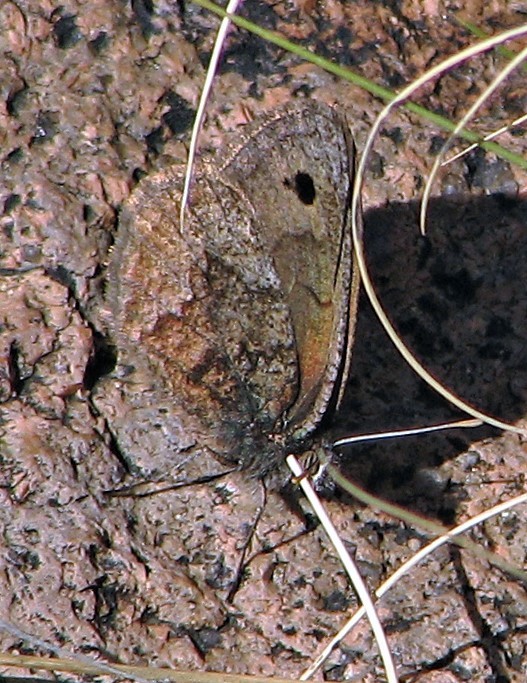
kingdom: Animalia
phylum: Arthropoda
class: Insecta
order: Lepidoptera
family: Nymphalidae
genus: Argyrophorus
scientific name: Argyrophorus
